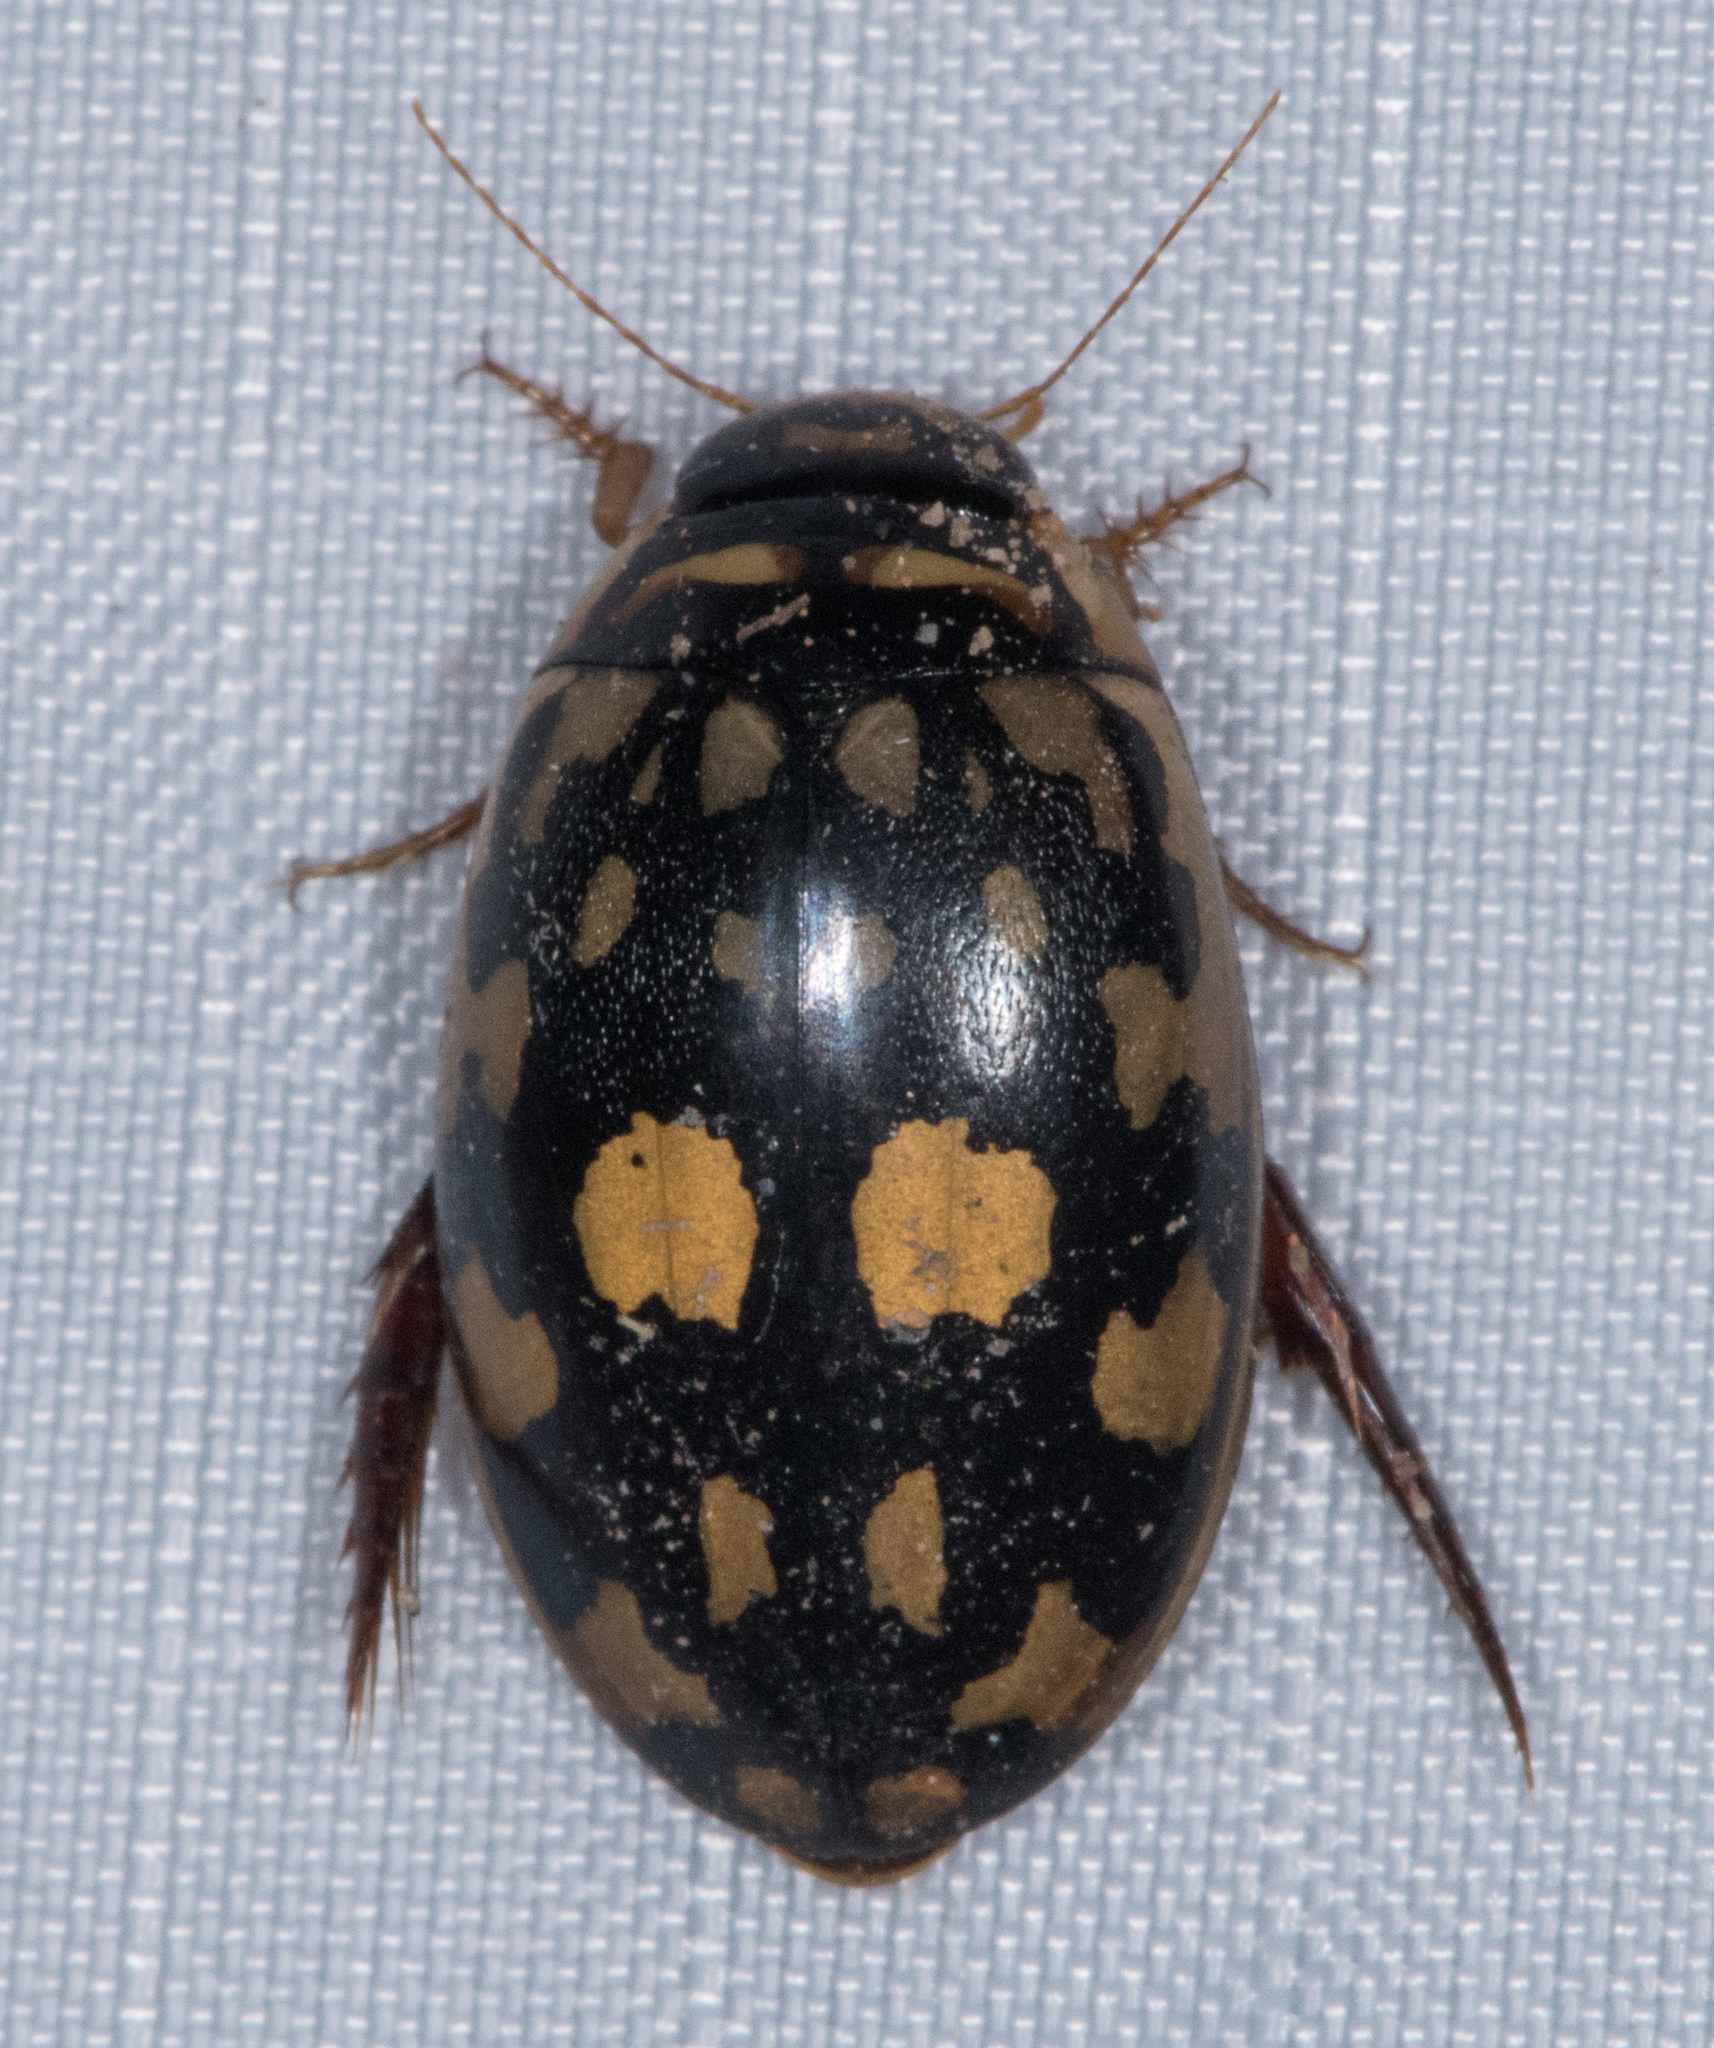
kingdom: Animalia
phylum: Arthropoda
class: Insecta
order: Coleoptera
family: Dytiscidae
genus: Thermonectus
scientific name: Thermonectus marmoratus
